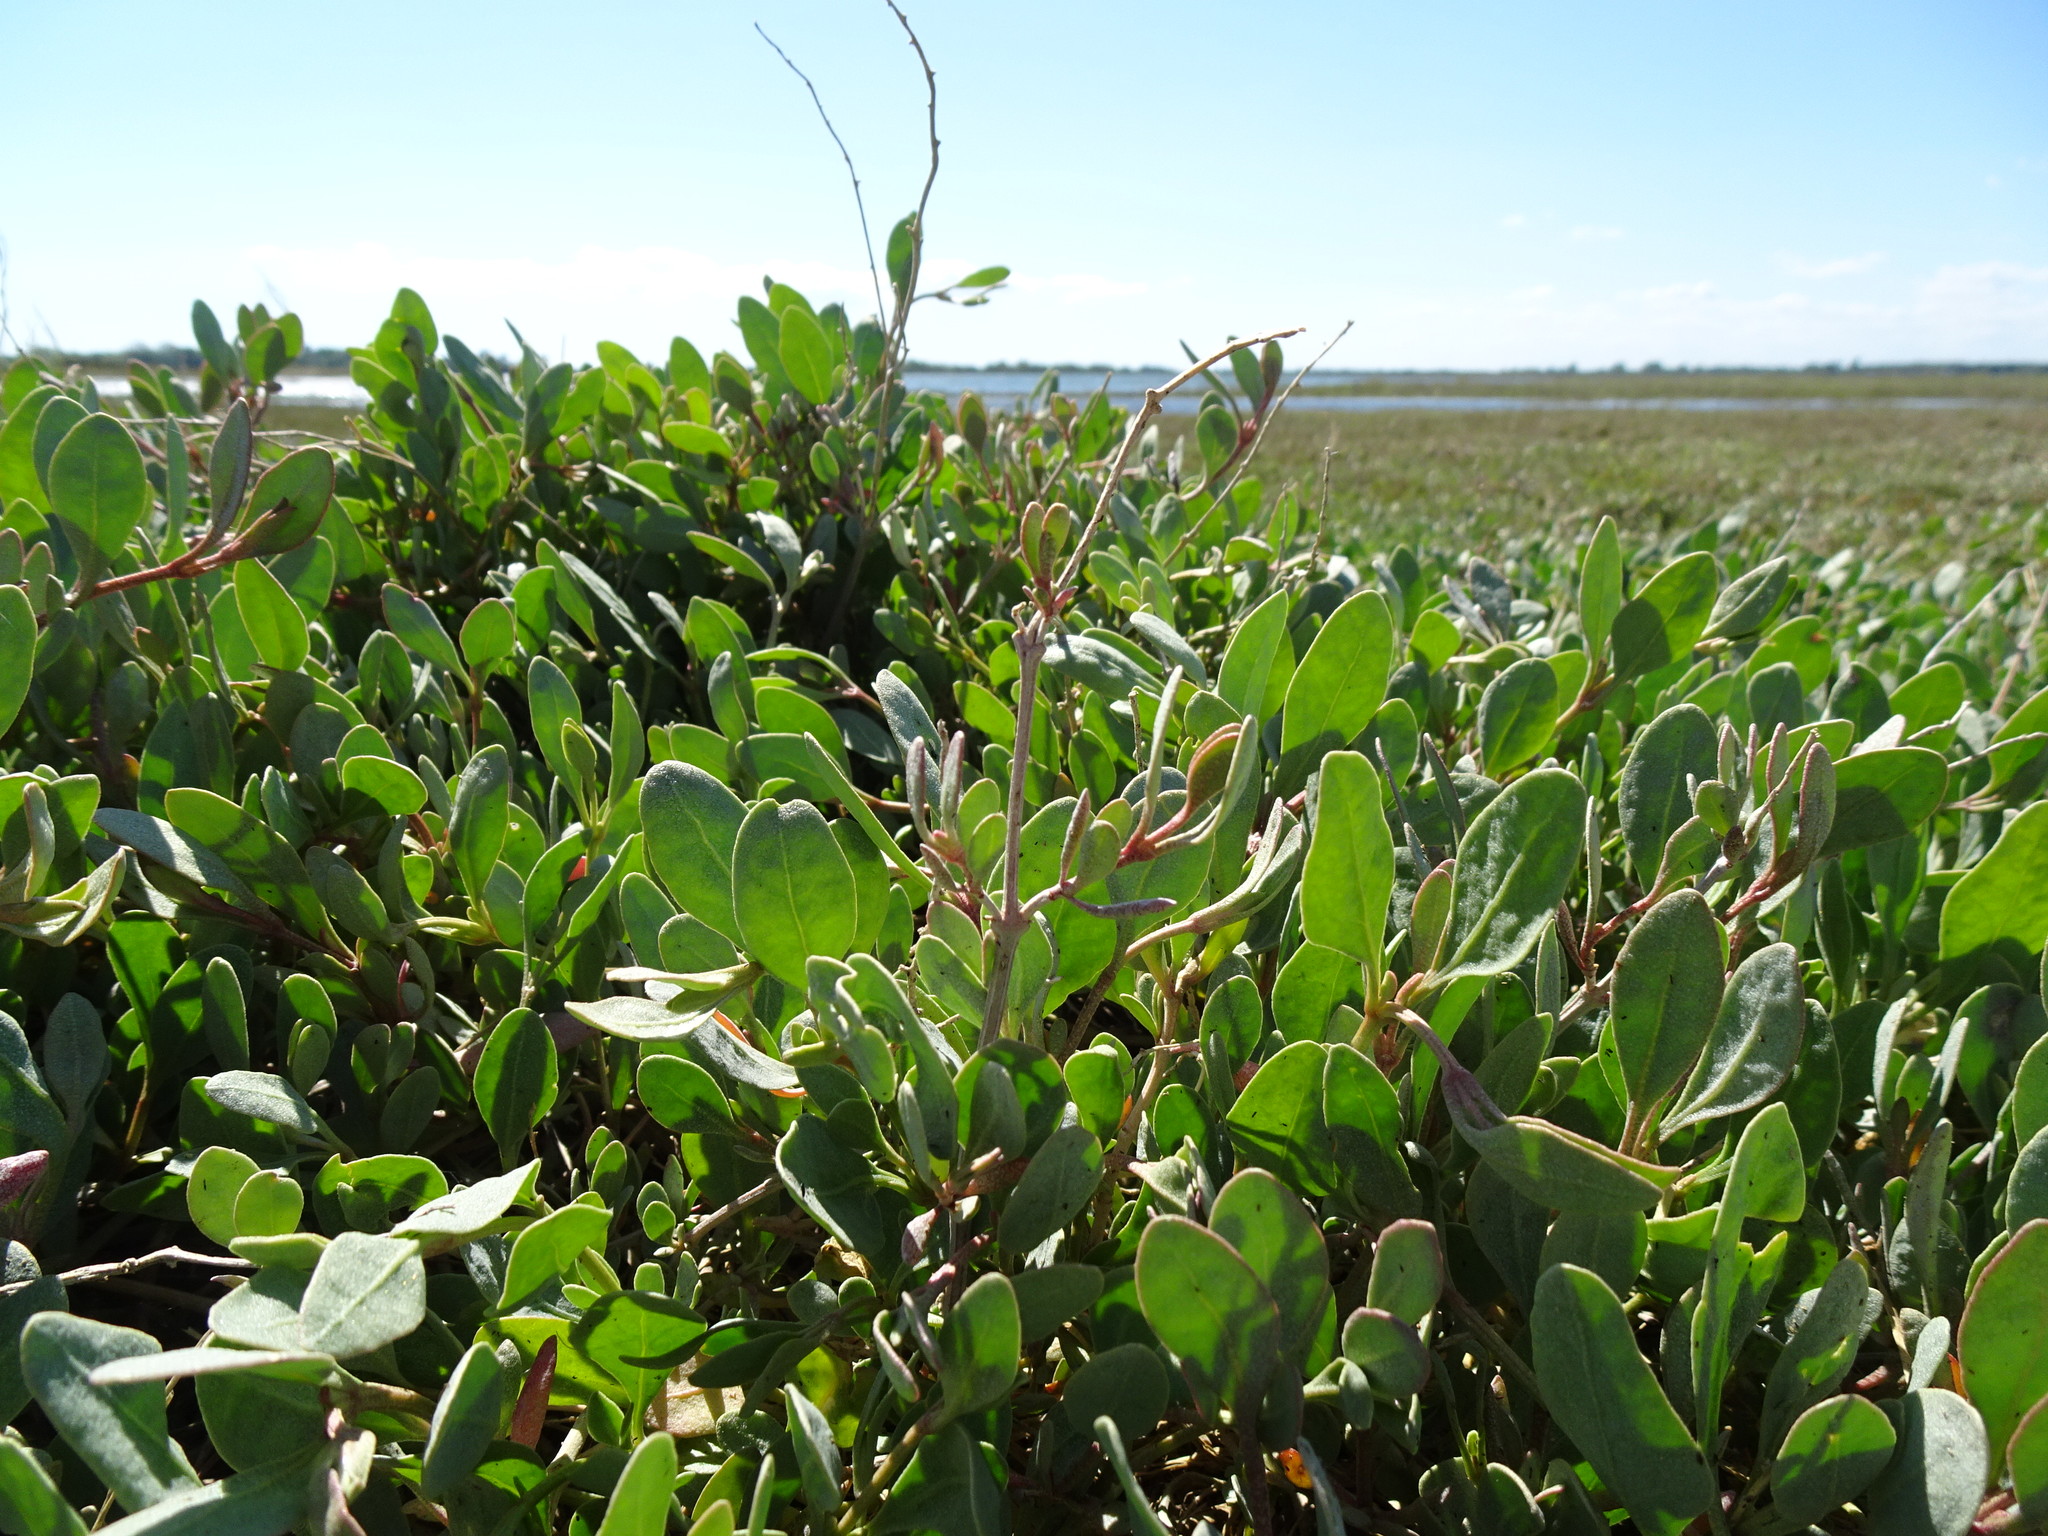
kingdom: Plantae
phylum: Tracheophyta
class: Magnoliopsida
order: Caryophyllales
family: Amaranthaceae
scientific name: Amaranthaceae
